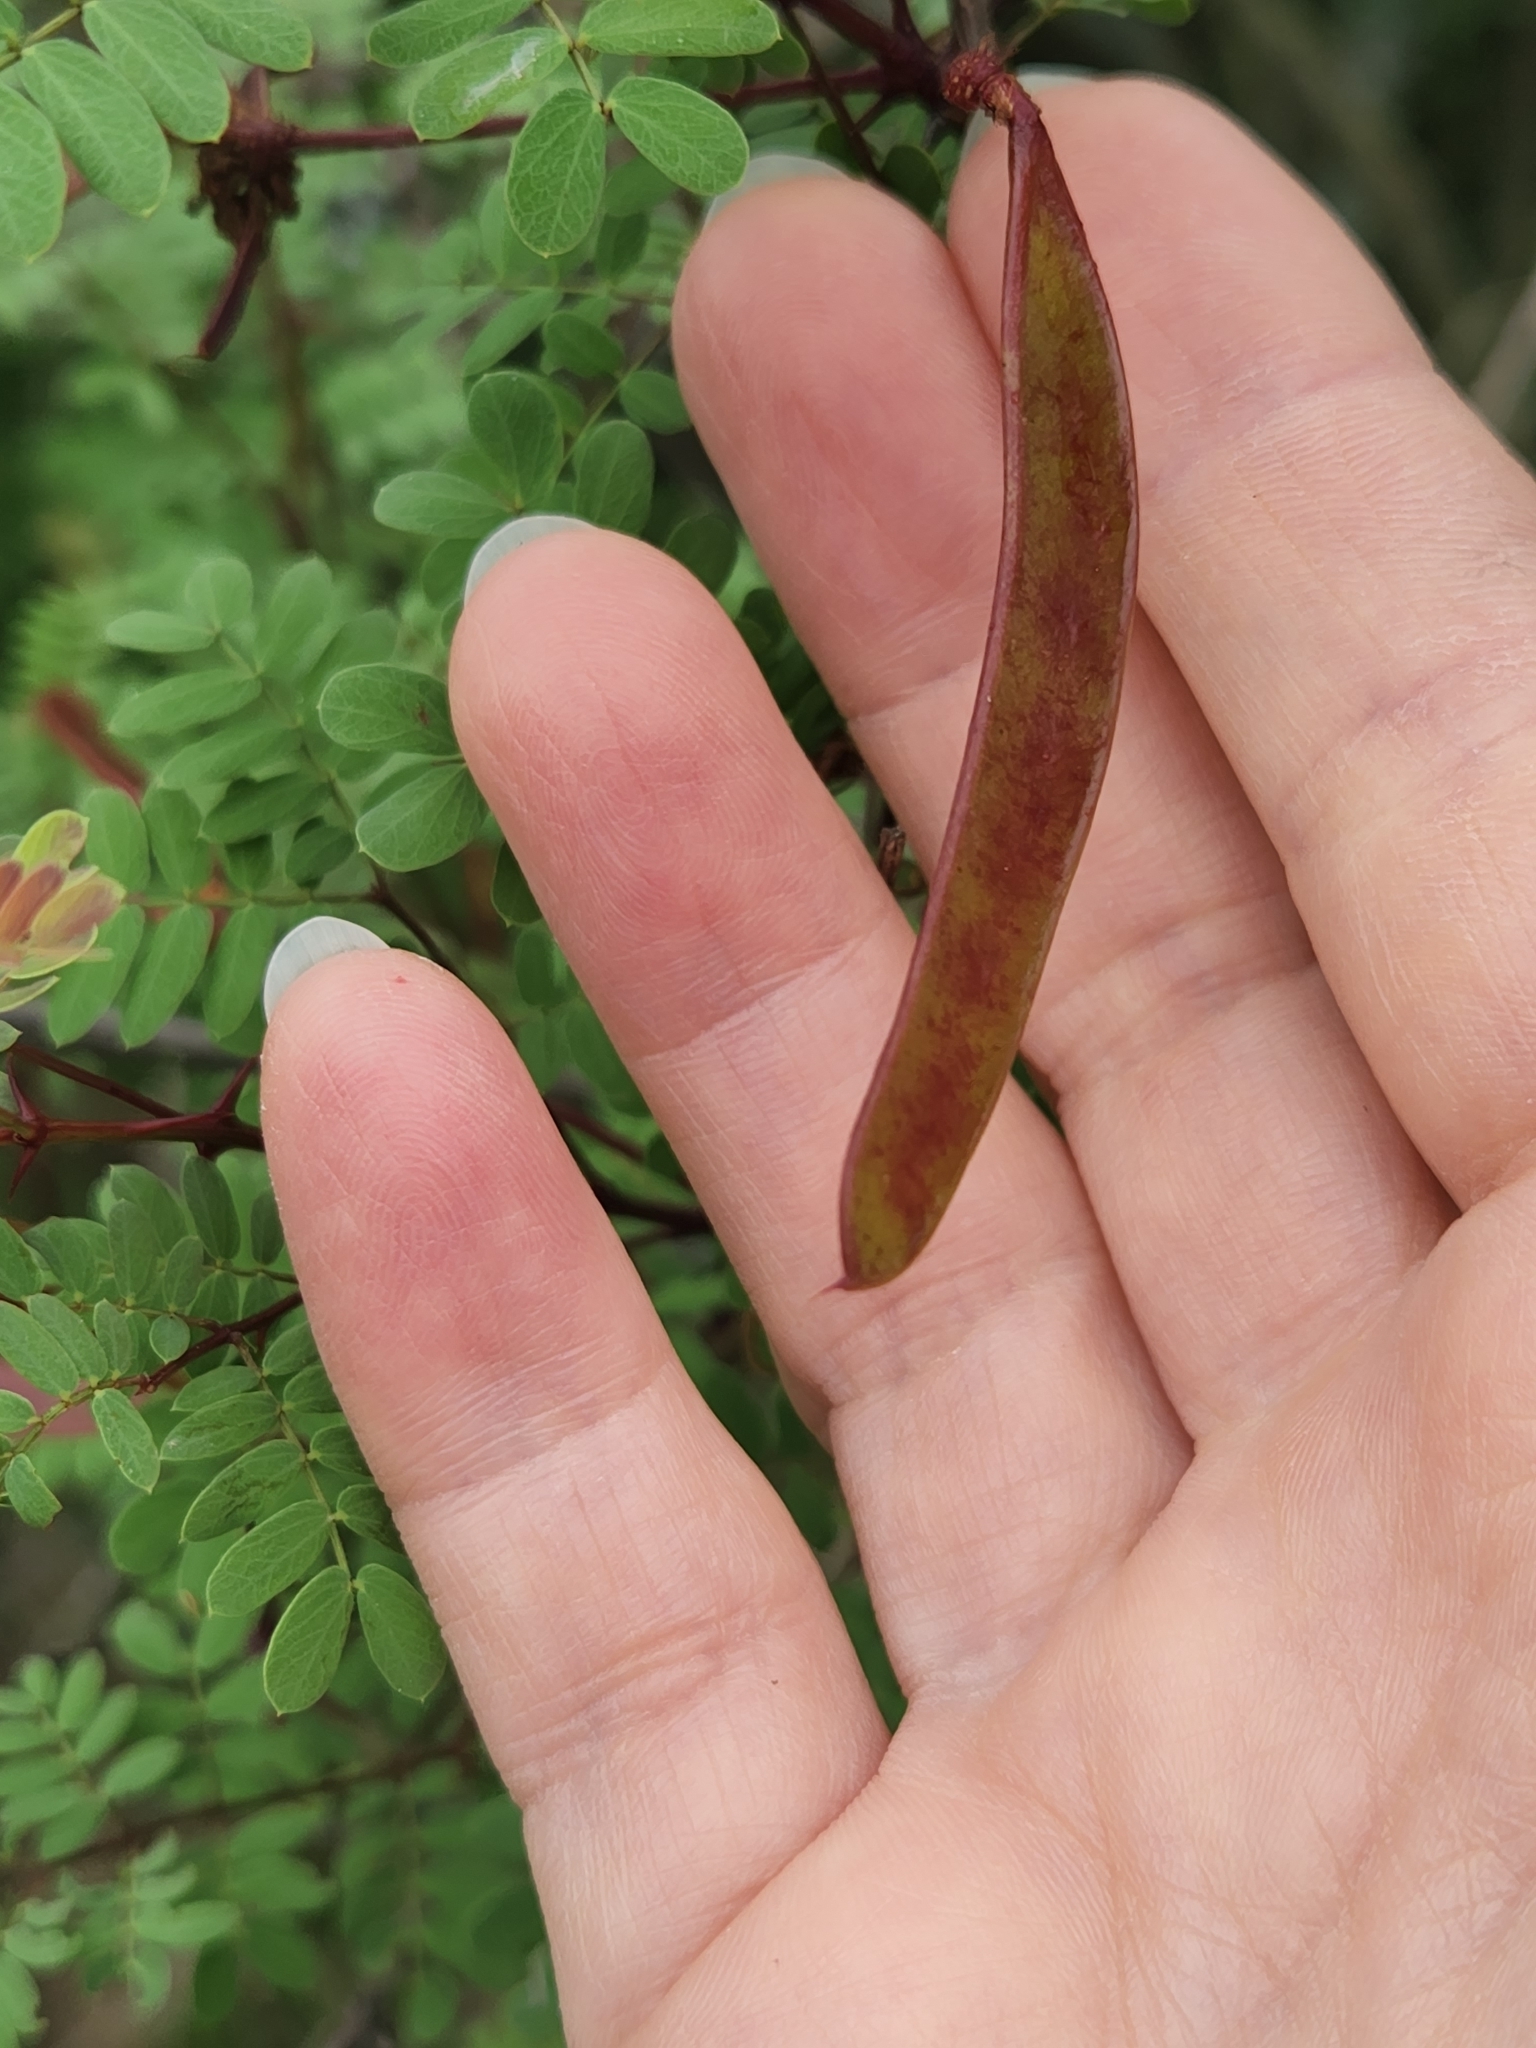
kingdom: Plantae
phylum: Tracheophyta
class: Magnoliopsida
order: Fabales
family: Fabaceae
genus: Senegalia
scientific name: Senegalia roemeriana
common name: Roemer's acacia
